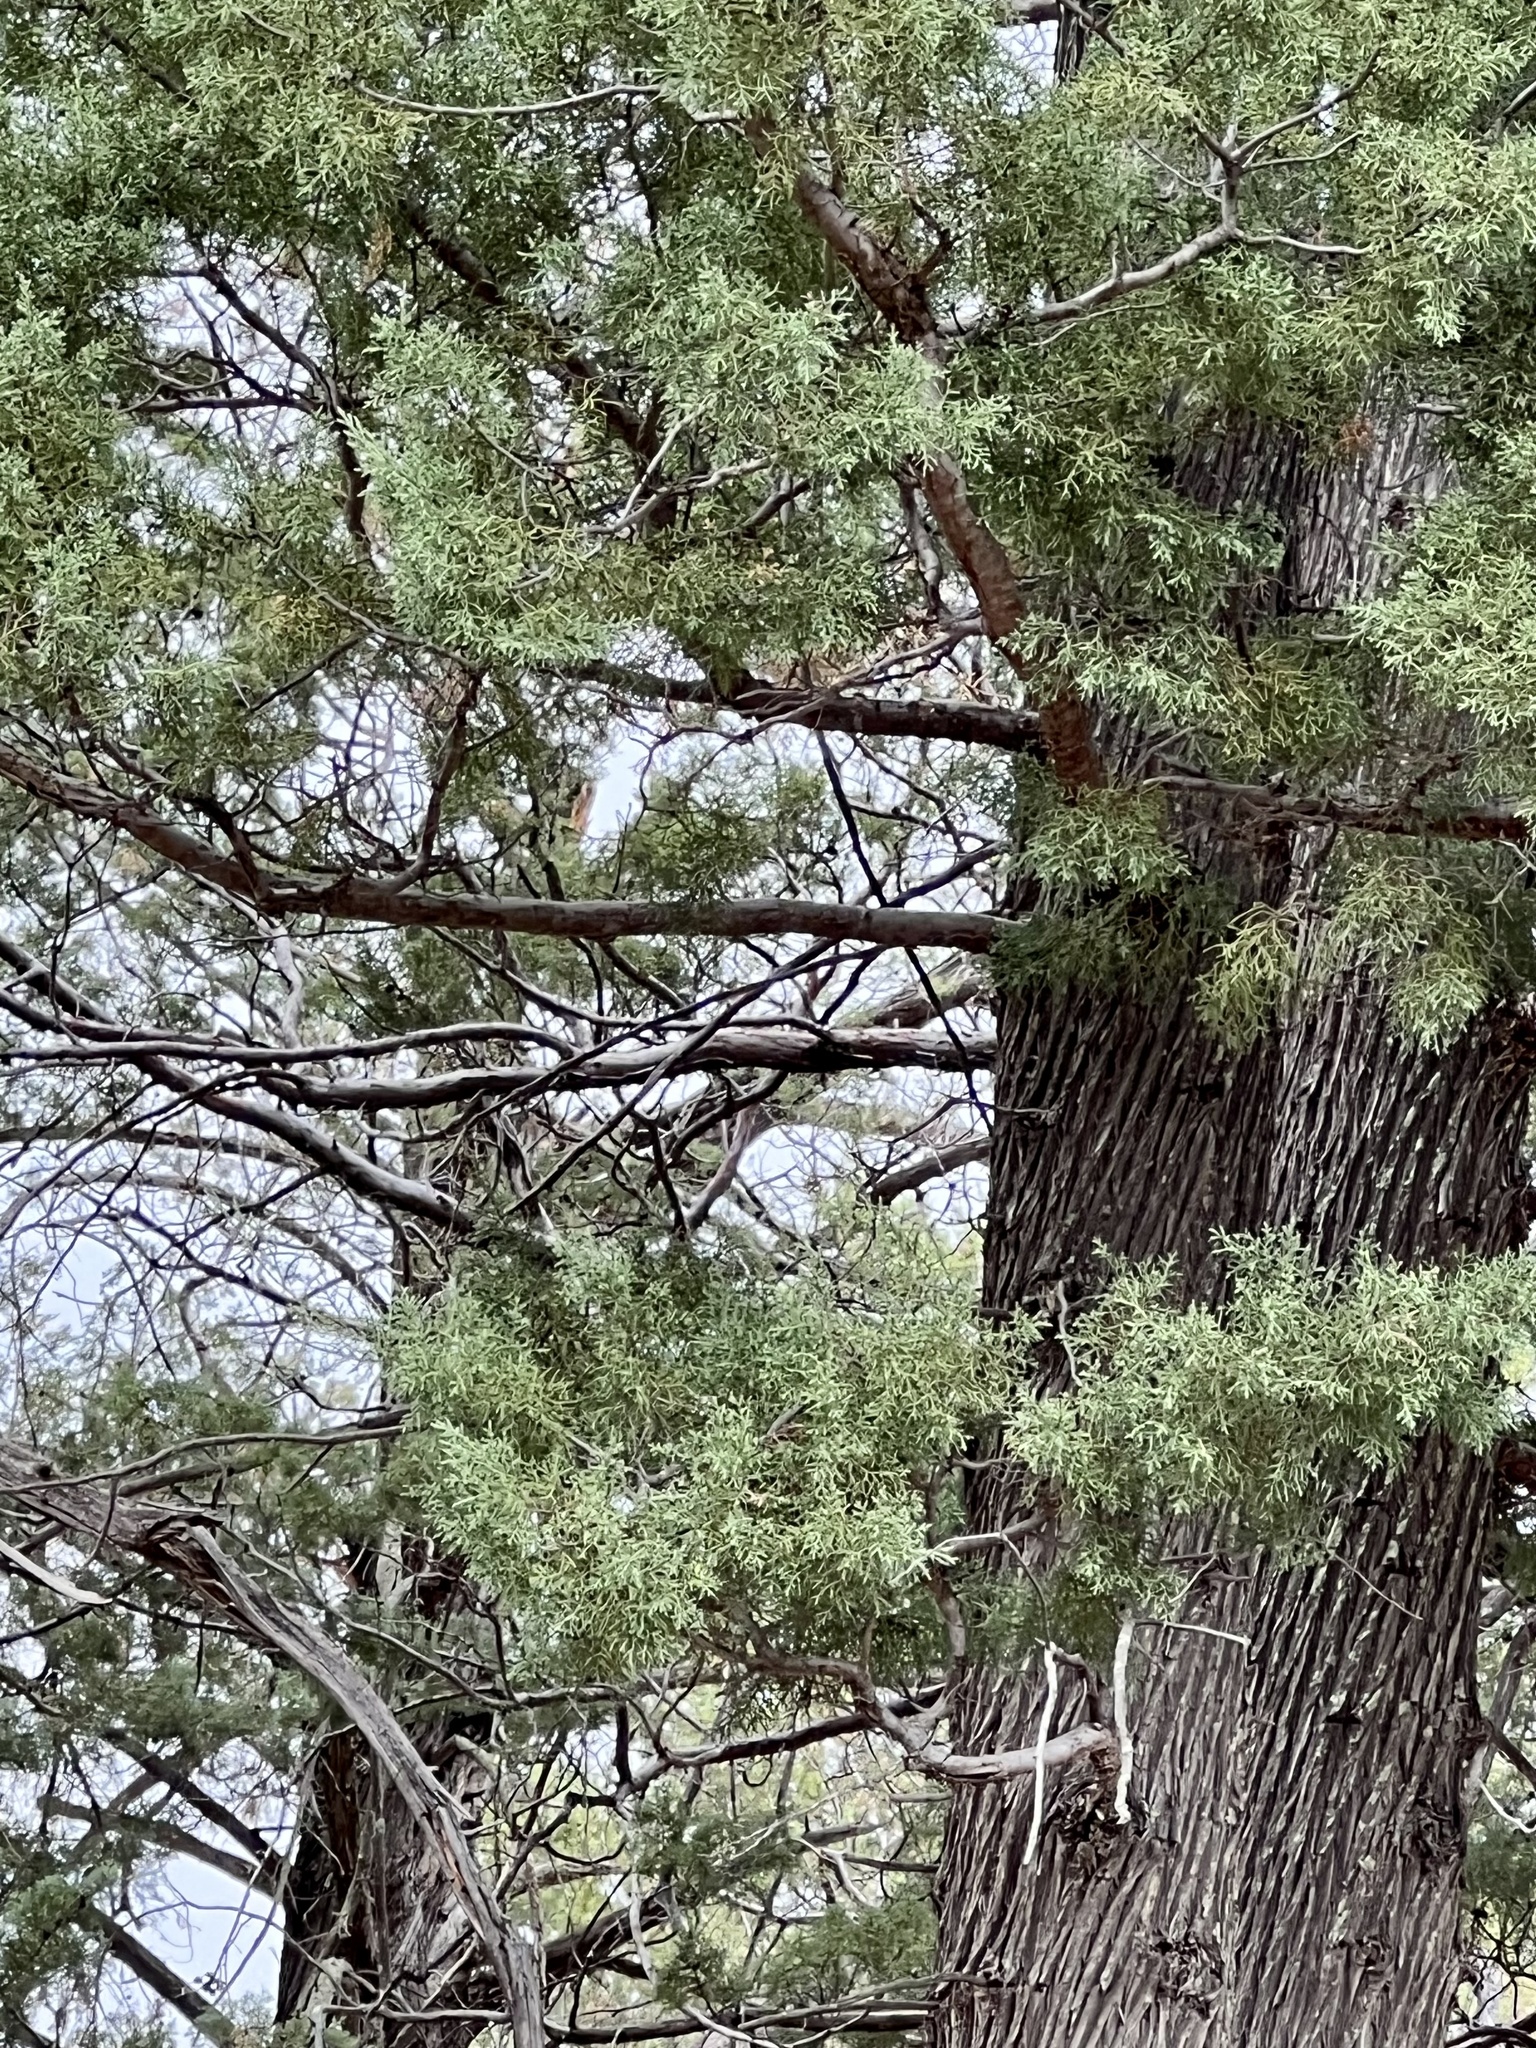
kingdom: Plantae
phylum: Tracheophyta
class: Pinopsida
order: Pinales
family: Cupressaceae
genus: Cupressus
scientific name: Cupressus arizonica
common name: Arizona cypress
